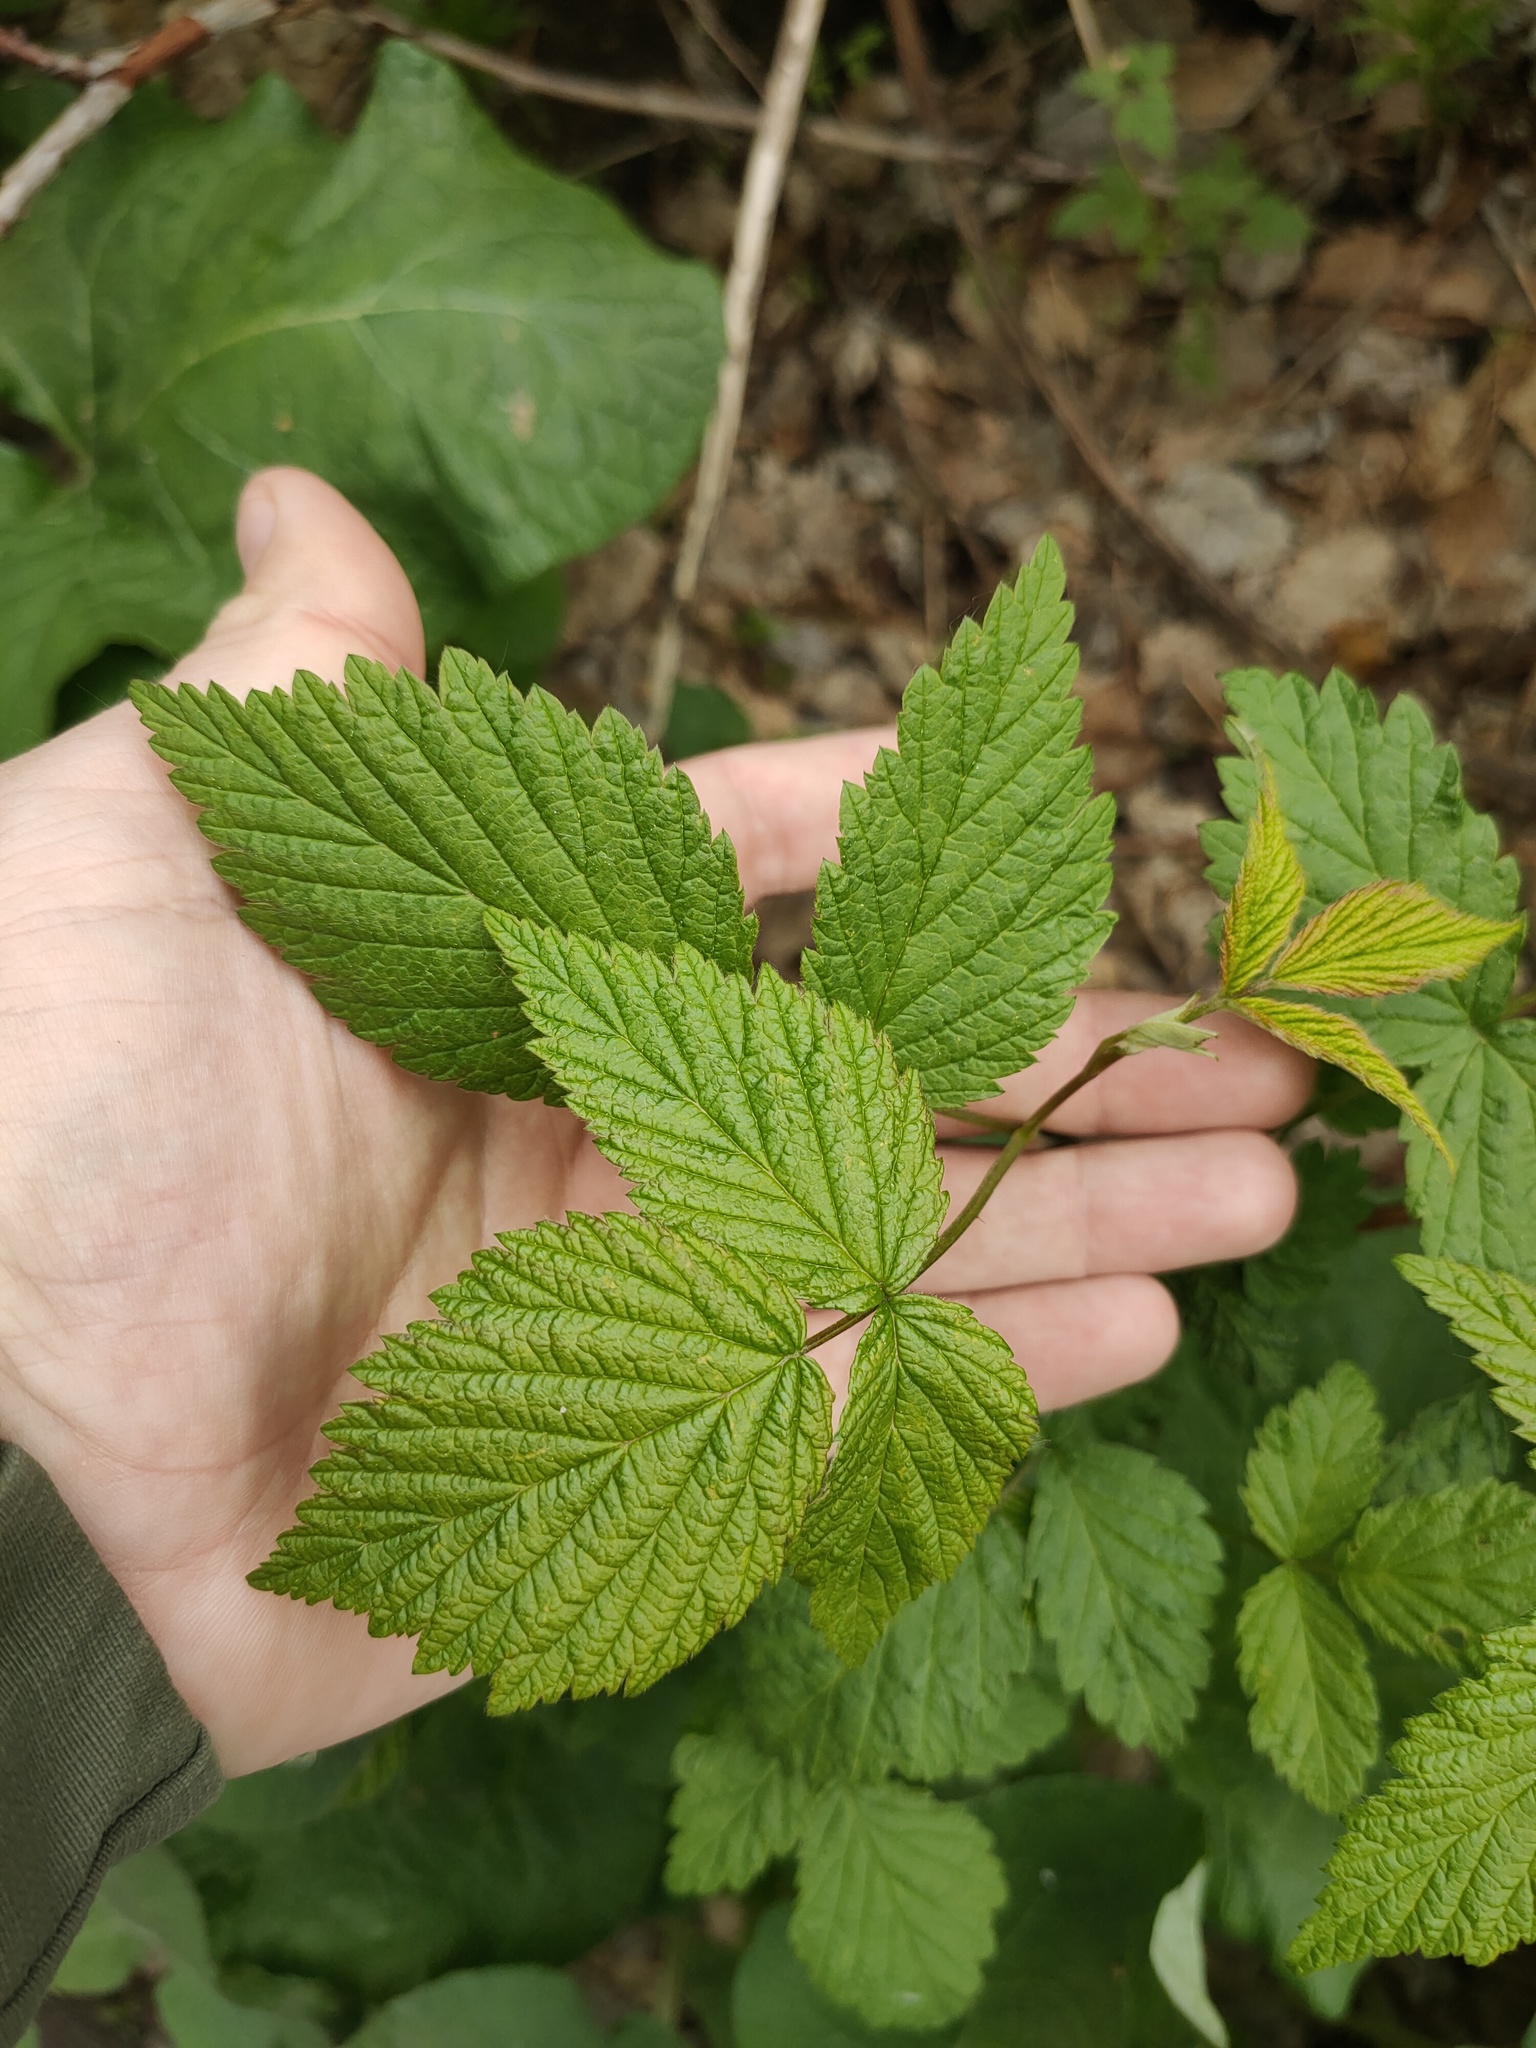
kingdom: Plantae
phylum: Tracheophyta
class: Magnoliopsida
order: Rosales
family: Rosaceae
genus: Rubus
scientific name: Rubus idaeus
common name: Raspberry
